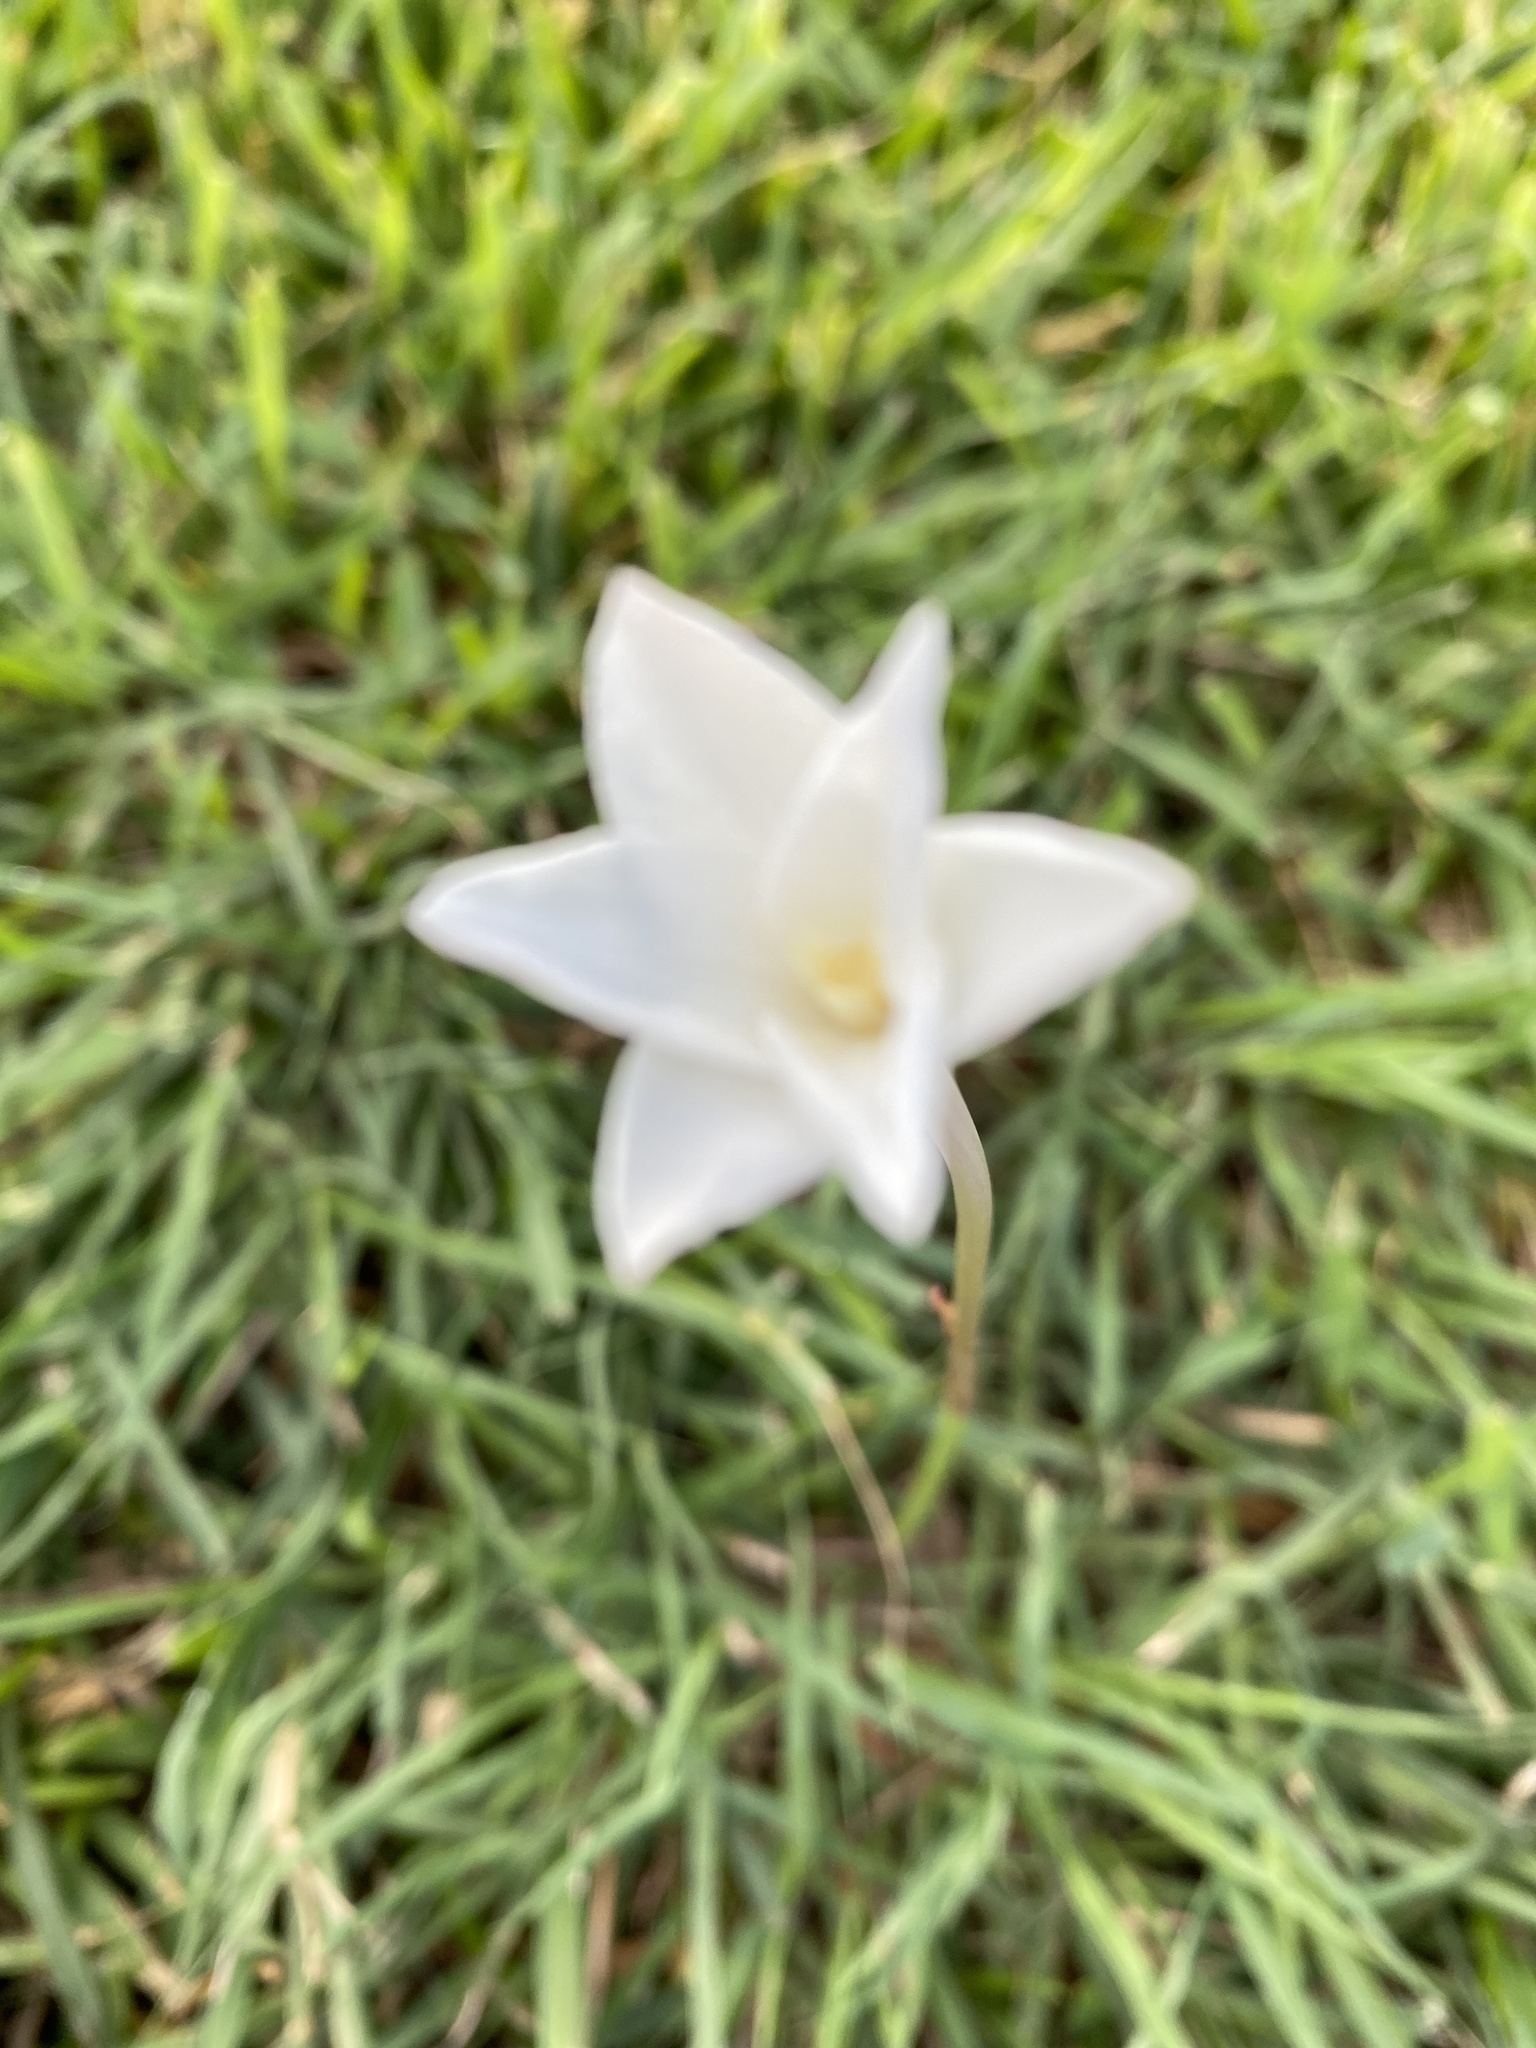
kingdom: Plantae
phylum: Tracheophyta
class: Liliopsida
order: Asparagales
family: Amaryllidaceae
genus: Zephyranthes
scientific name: Zephyranthes chlorosolen
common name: Evening rain-lily
